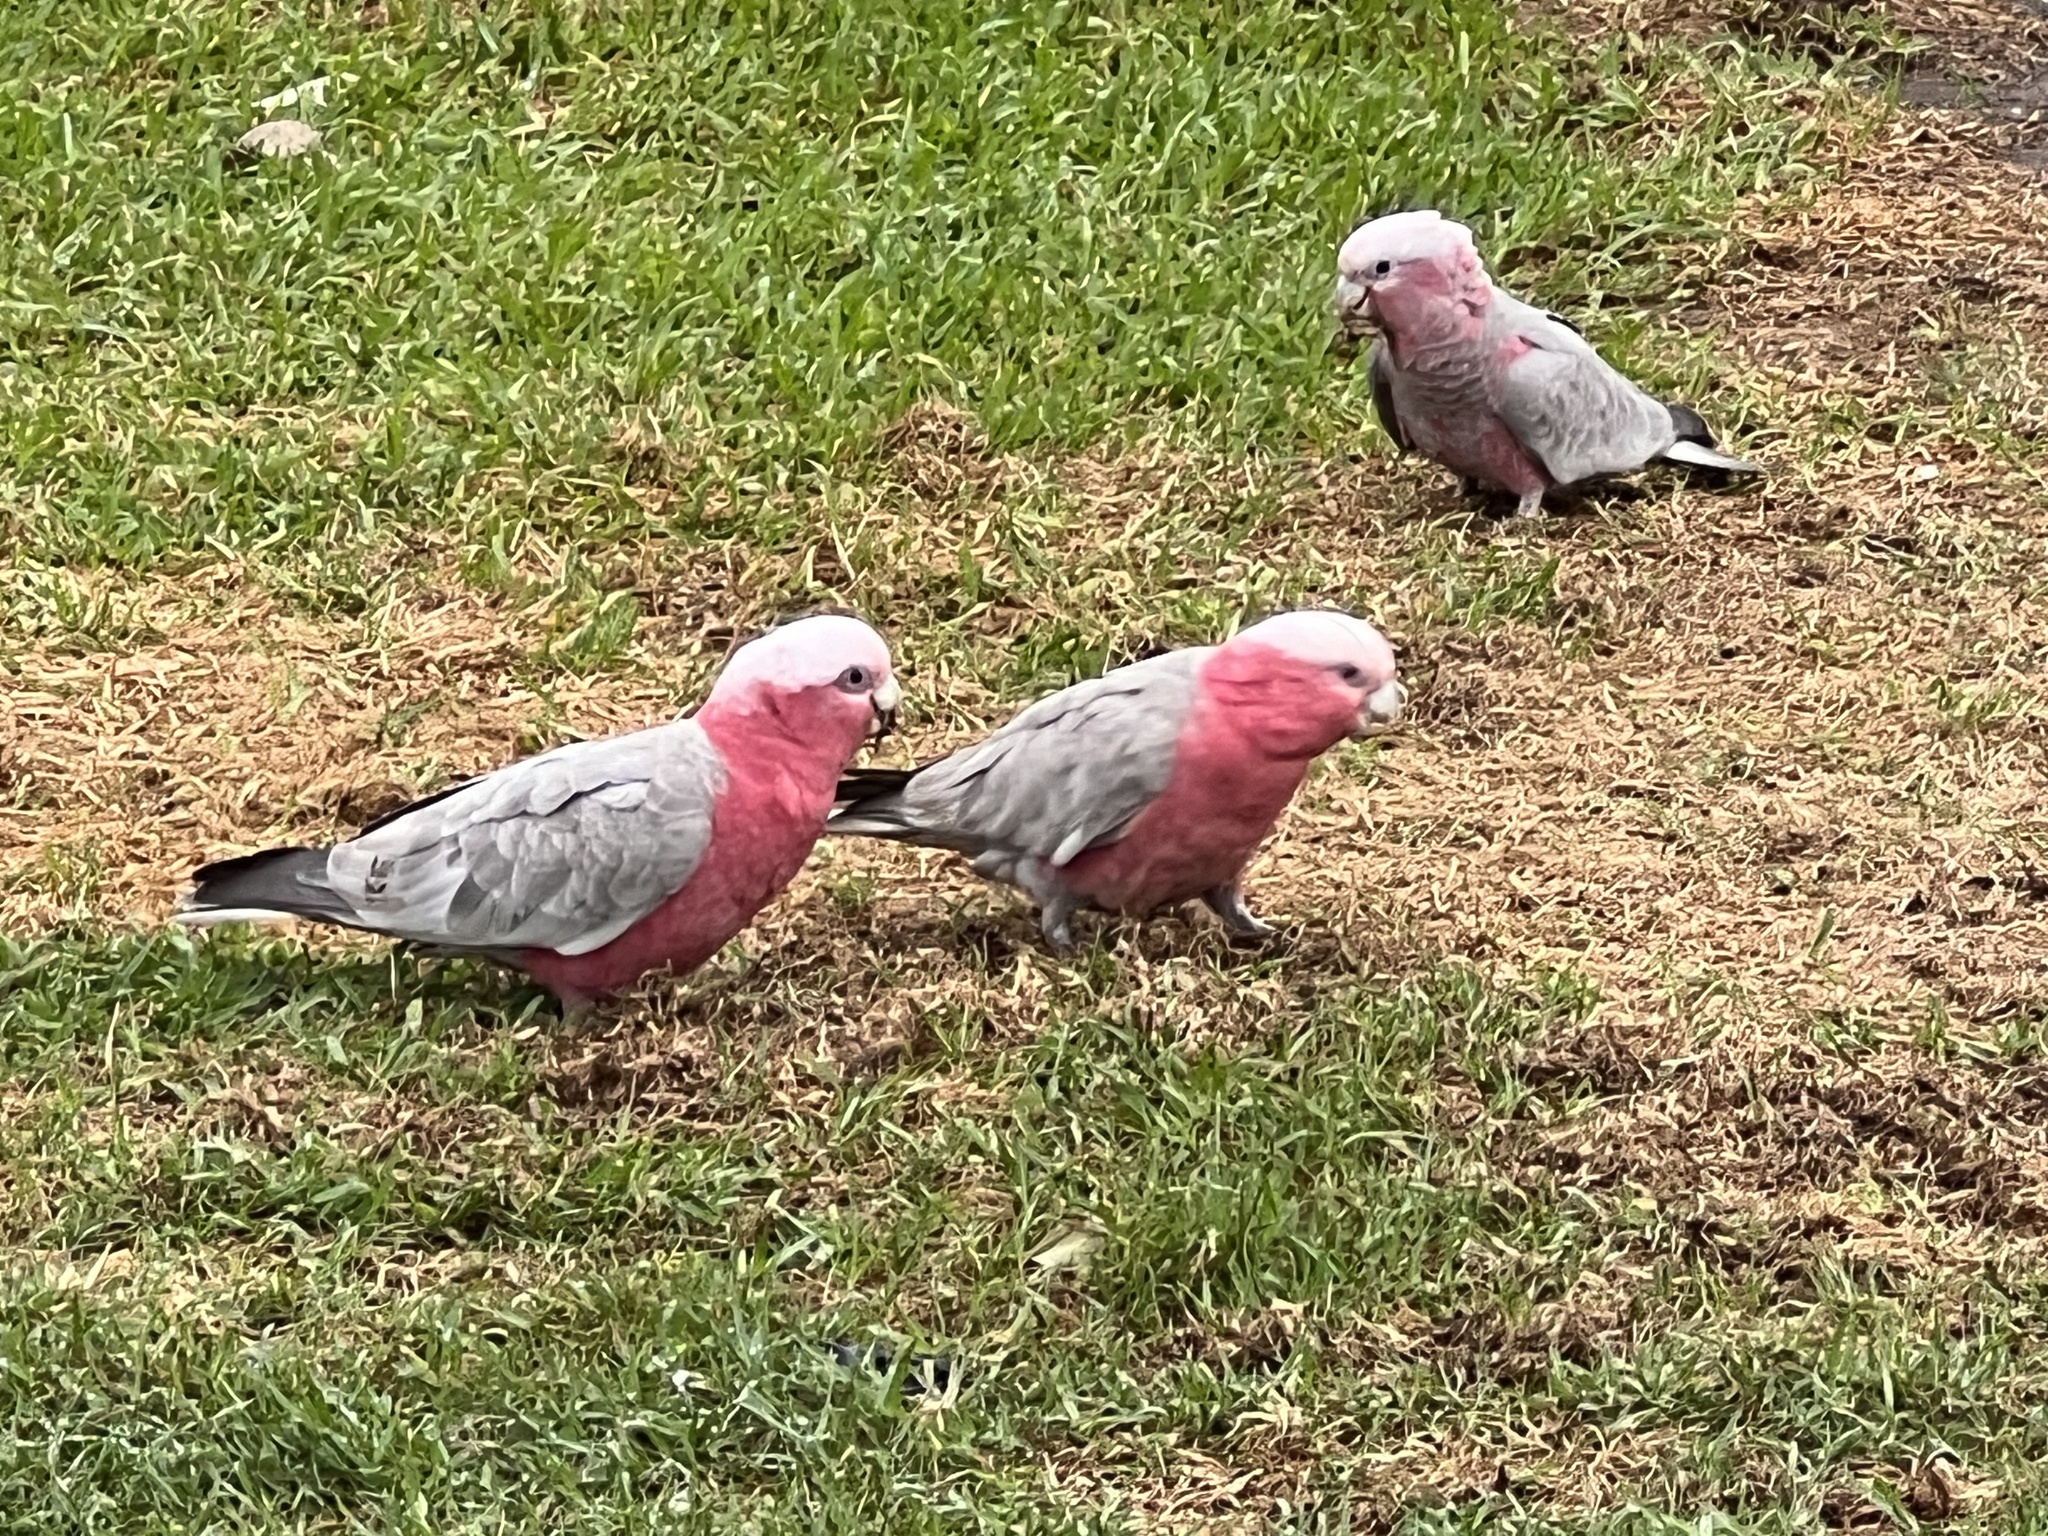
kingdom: Animalia
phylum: Chordata
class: Aves
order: Psittaciformes
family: Psittacidae
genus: Eolophus
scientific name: Eolophus roseicapilla
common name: Galah
